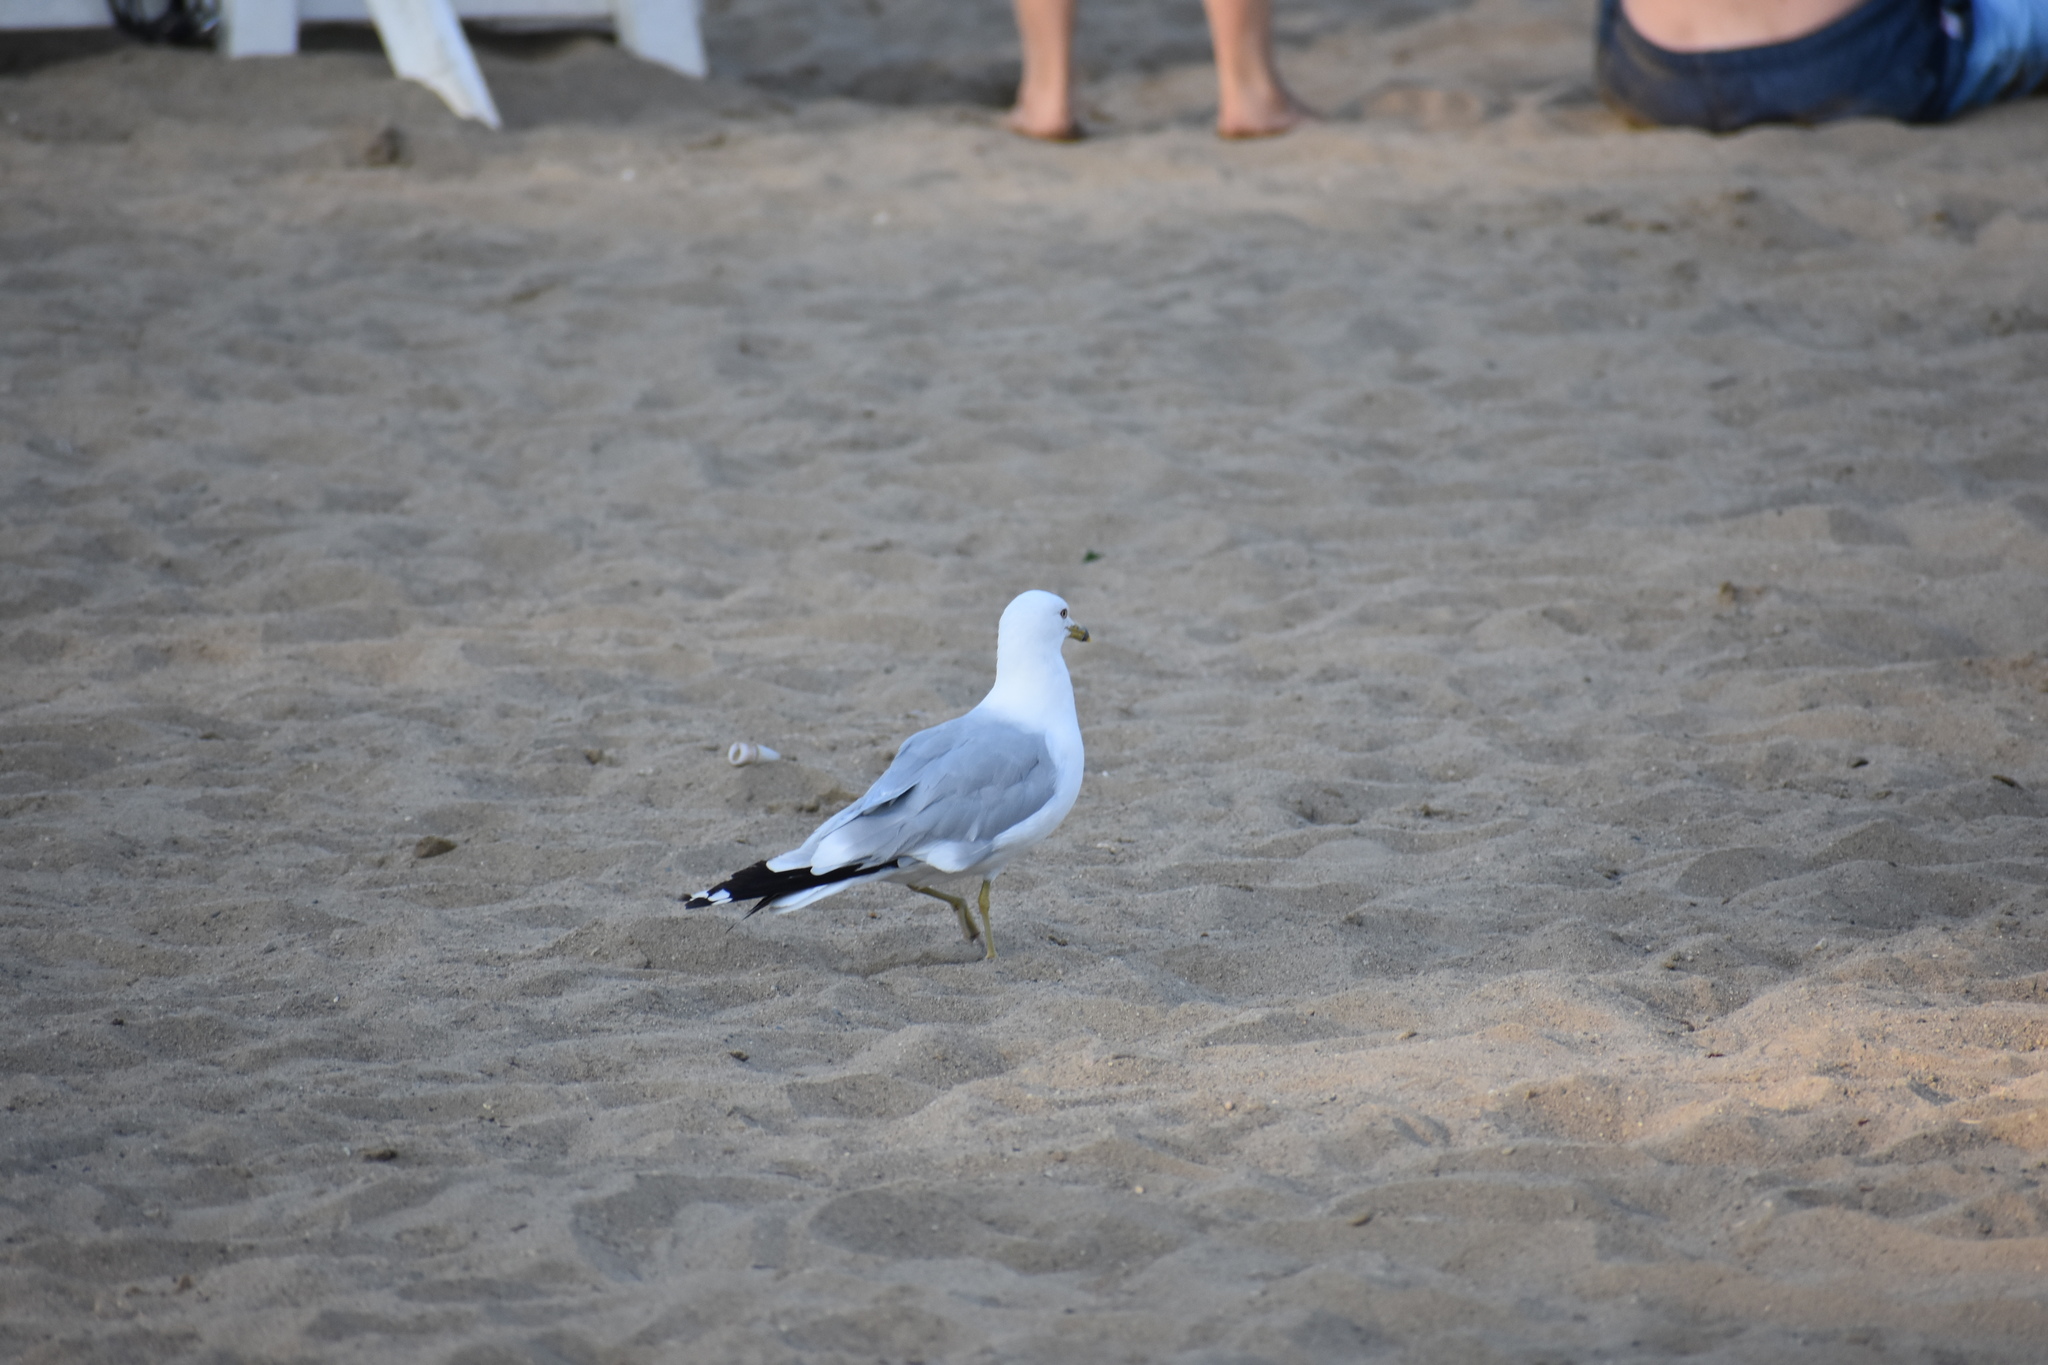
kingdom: Animalia
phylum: Chordata
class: Aves
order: Charadriiformes
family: Laridae
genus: Larus
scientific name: Larus delawarensis
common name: Ring-billed gull
